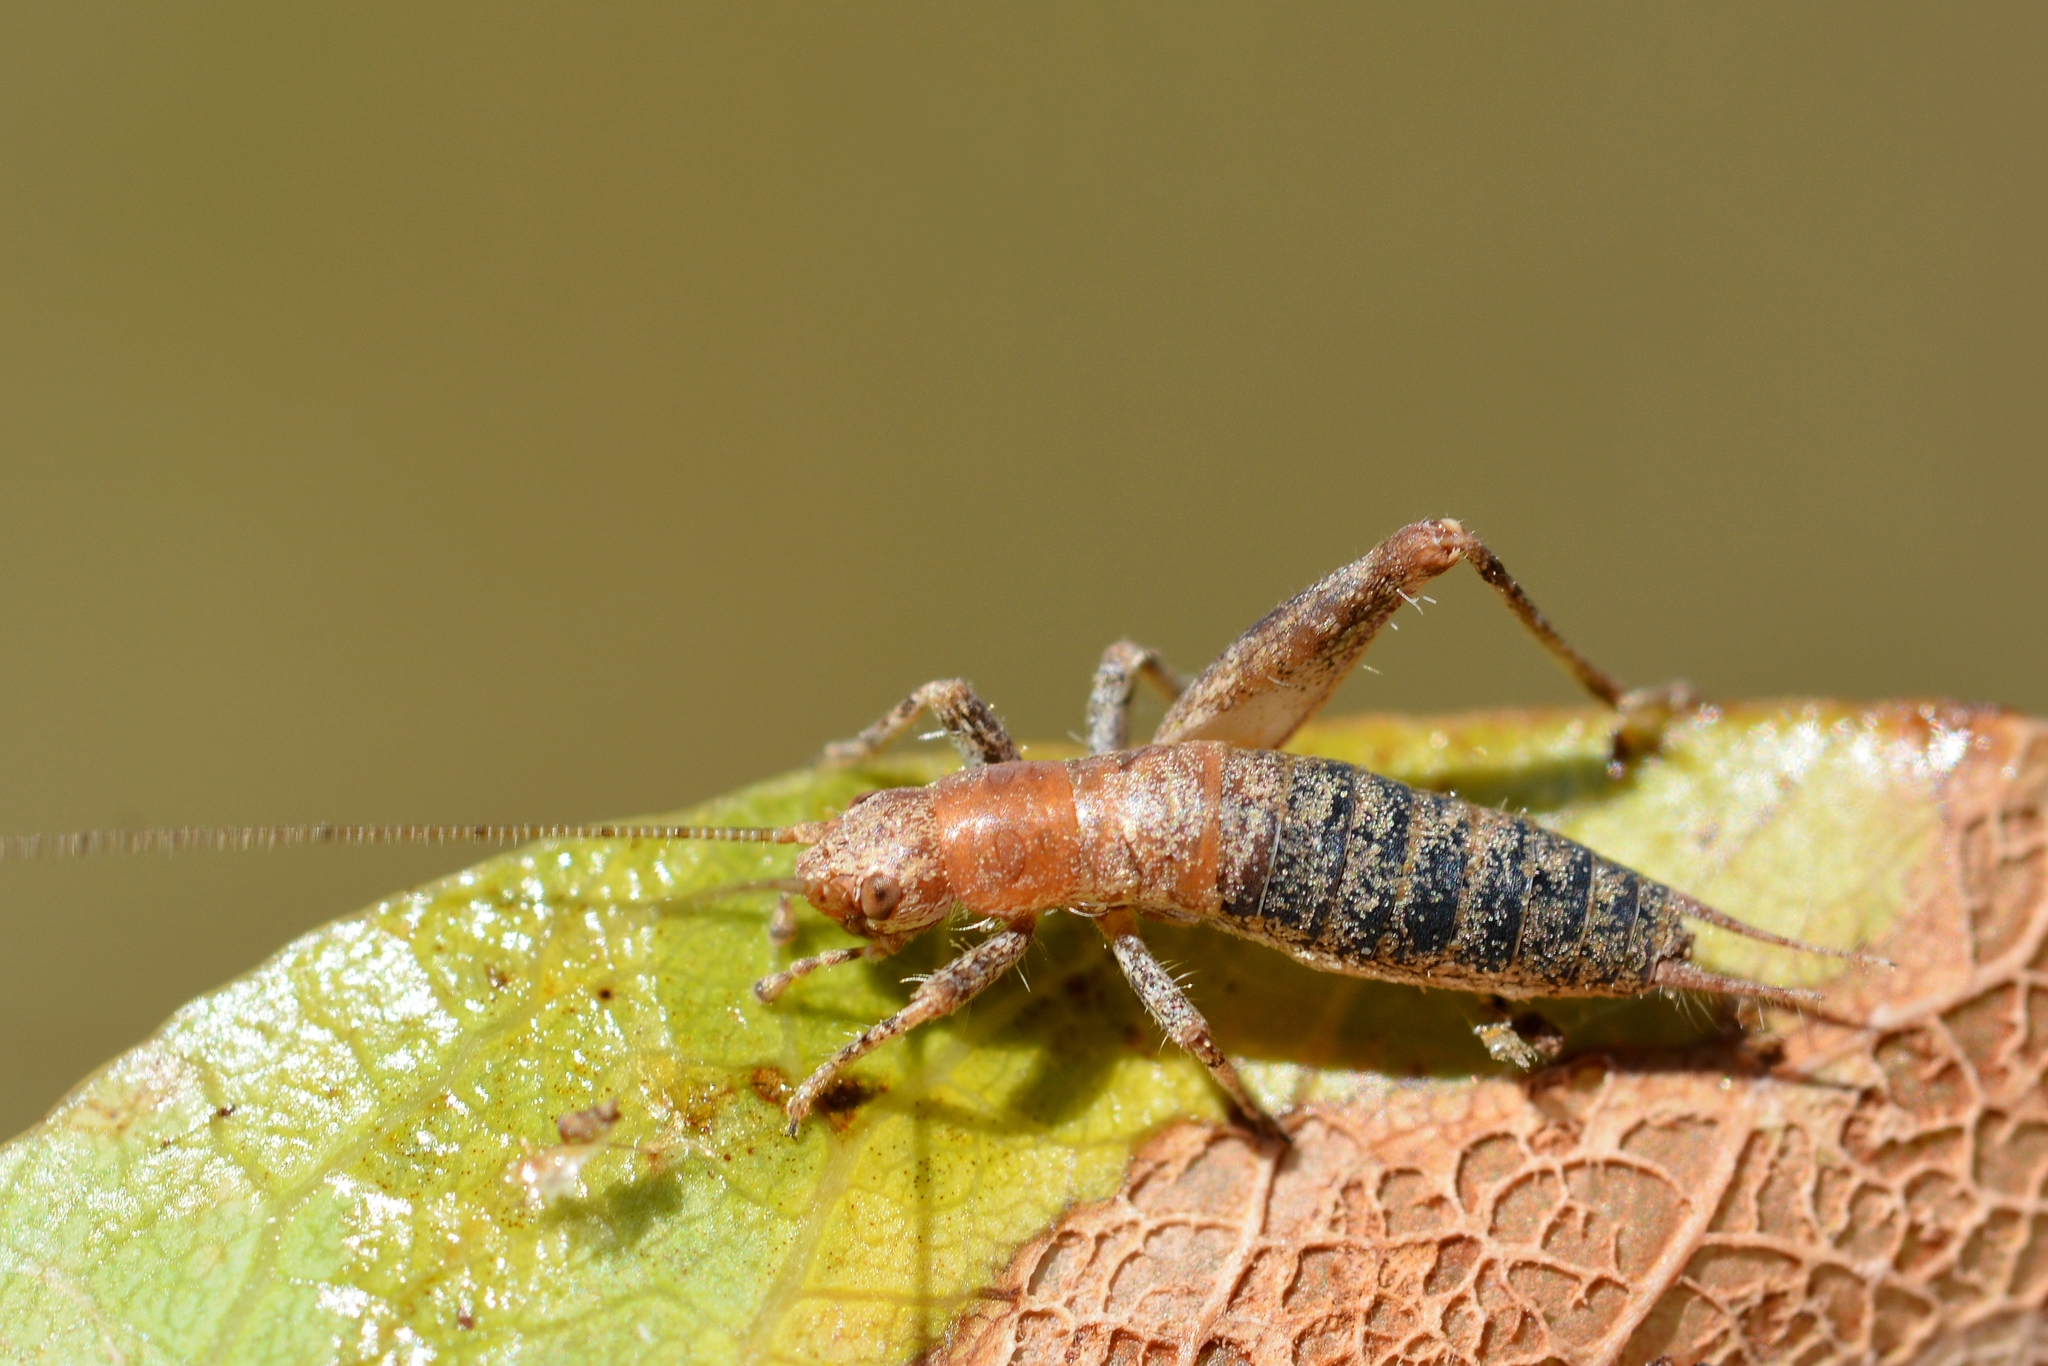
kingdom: Animalia
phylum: Arthropoda
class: Insecta
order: Orthoptera
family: Mogoplistidae
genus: Arachnocephalus
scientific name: Arachnocephalus vestitus
